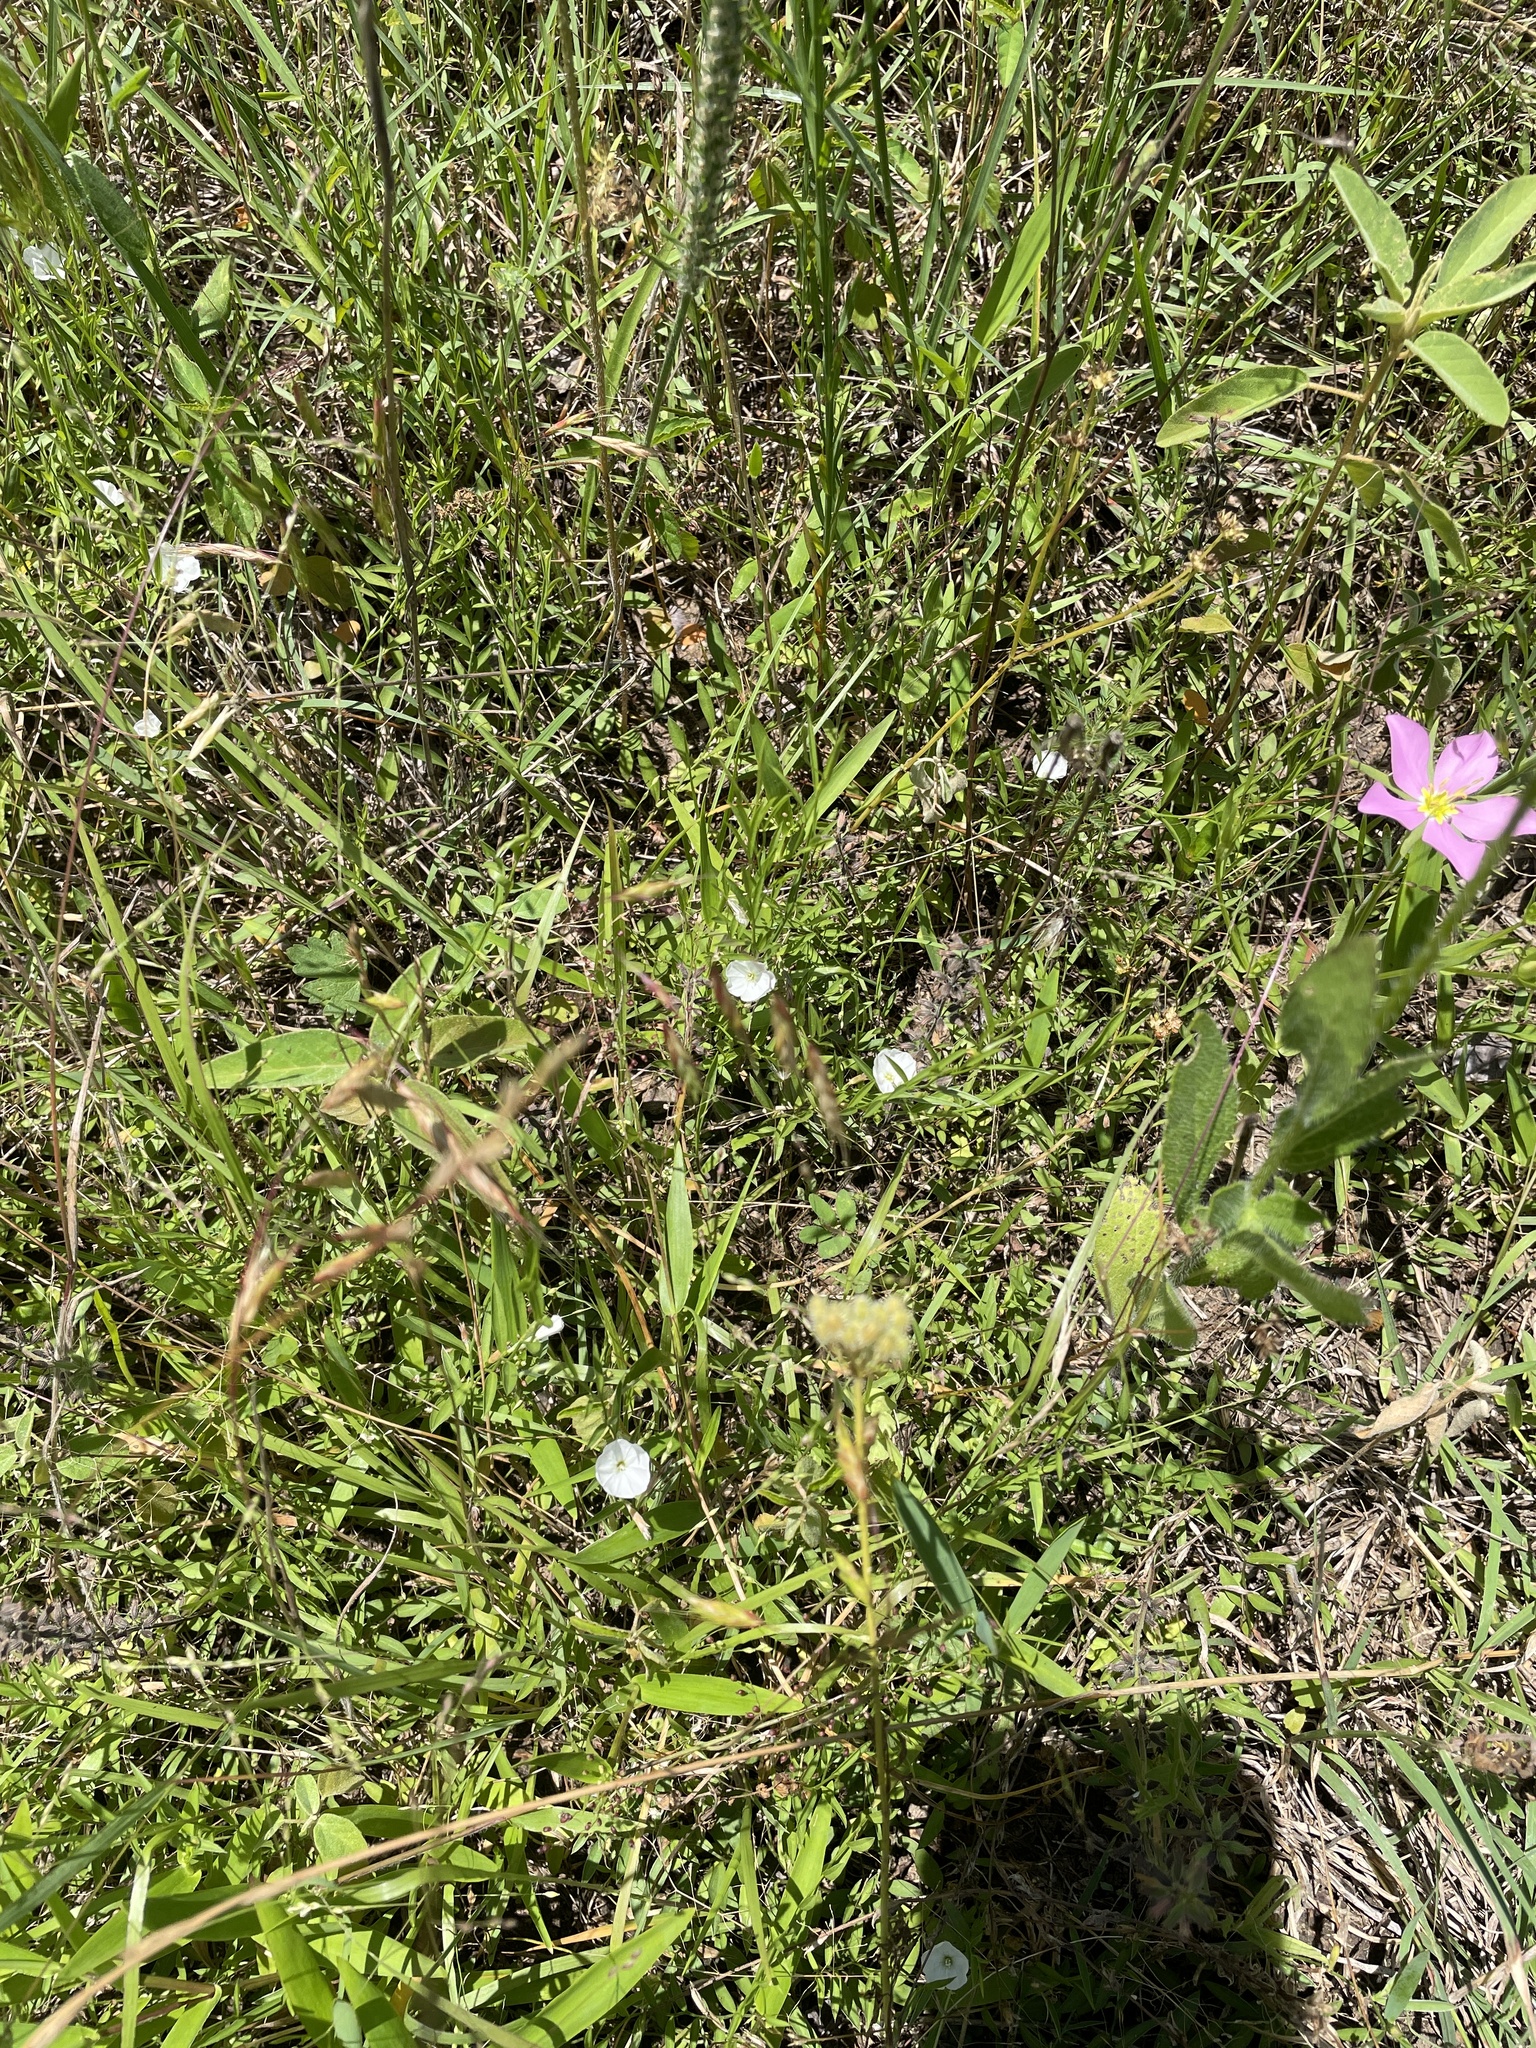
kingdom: Plantae
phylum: Tracheophyta
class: Magnoliopsida
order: Solanales
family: Convolvulaceae
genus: Evolvulus
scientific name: Evolvulus sericeus
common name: Blue dots
